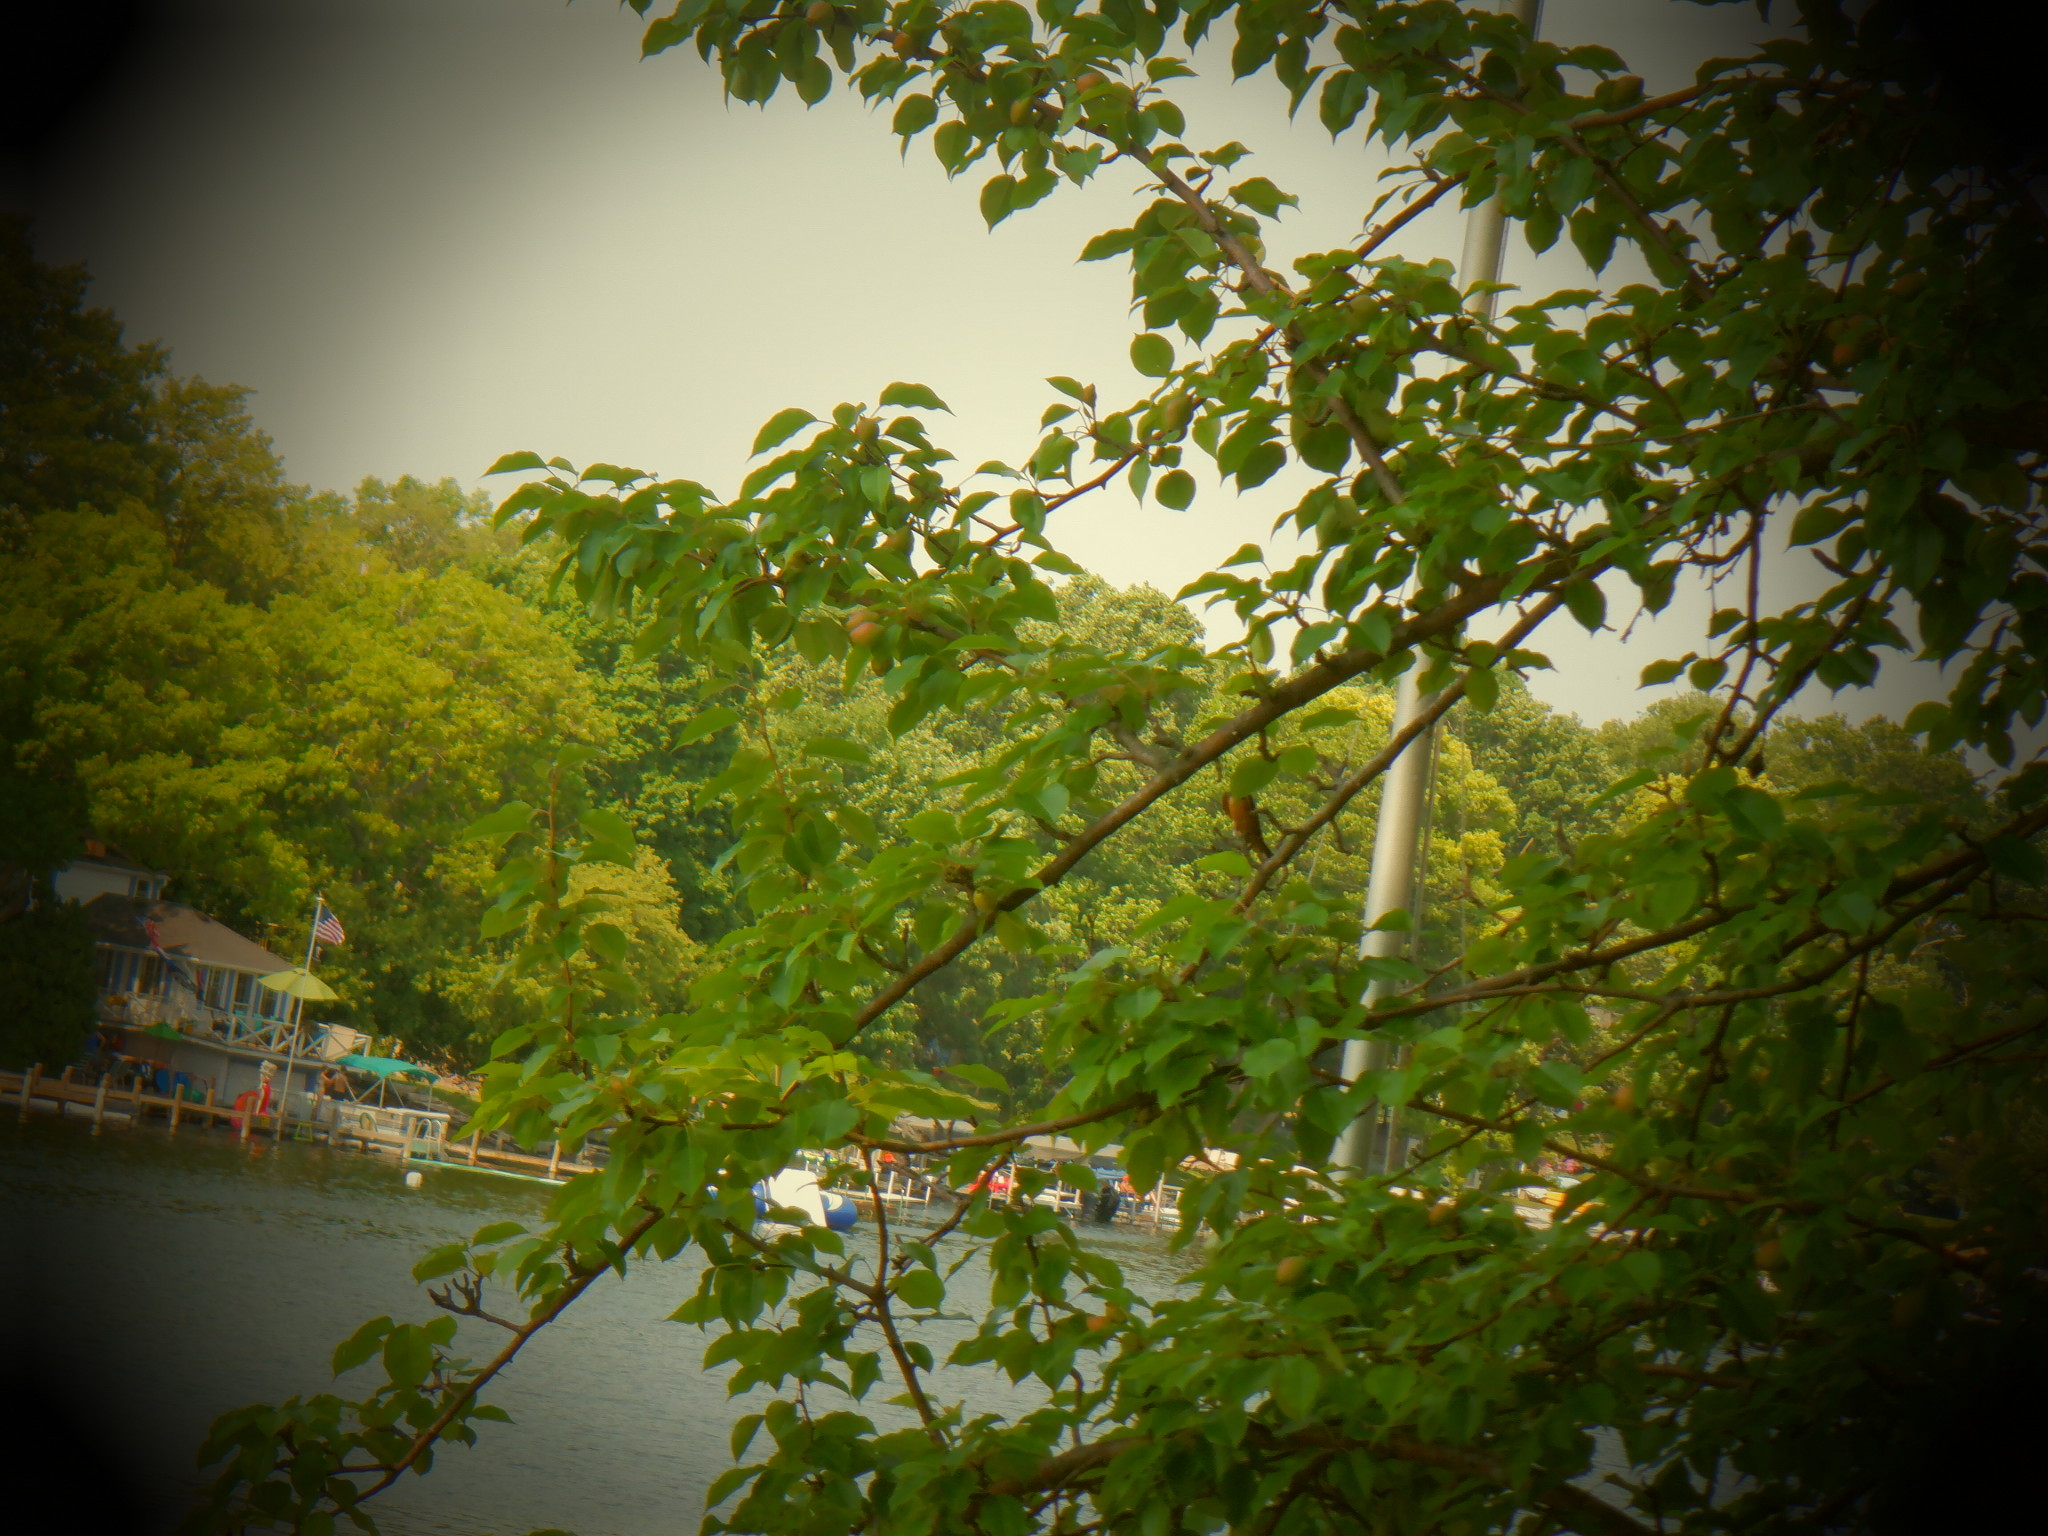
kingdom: Animalia
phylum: Chordata
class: Aves
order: Passeriformes
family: Hirundinidae
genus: Hirundo
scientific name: Hirundo rustica
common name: Barn swallow
